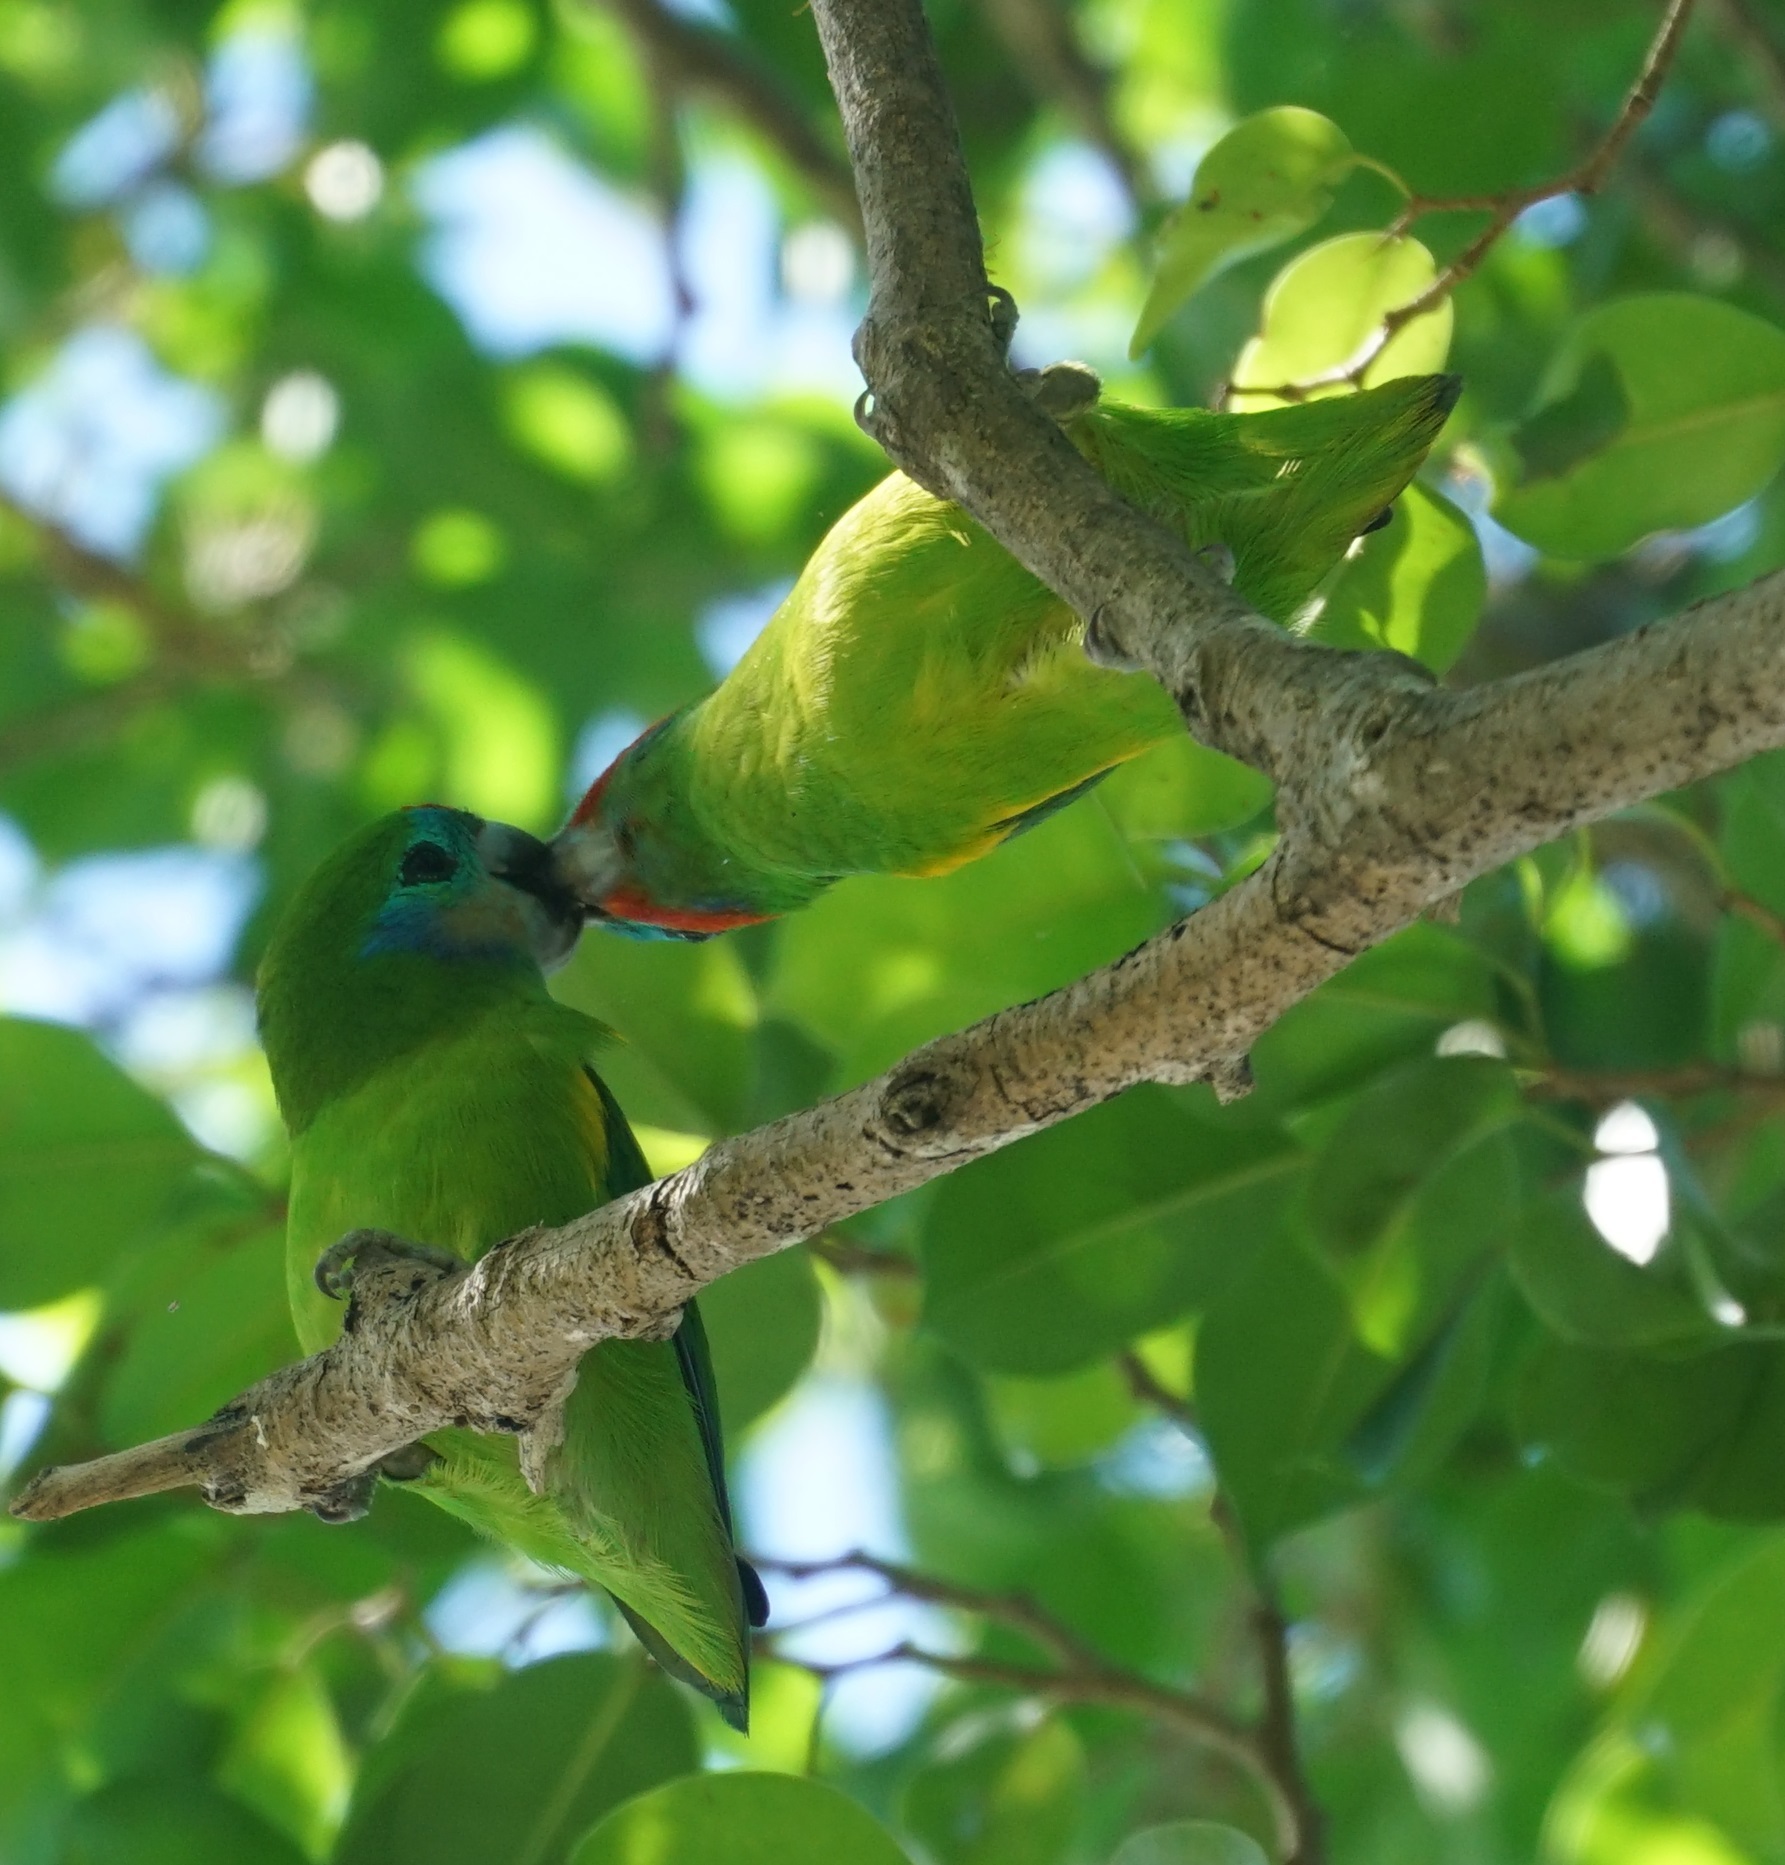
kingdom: Animalia
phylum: Chordata
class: Aves
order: Psittaciformes
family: Psittacidae
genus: Cyclopsitta
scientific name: Cyclopsitta diophthalma
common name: Double-eyed fig parrot
